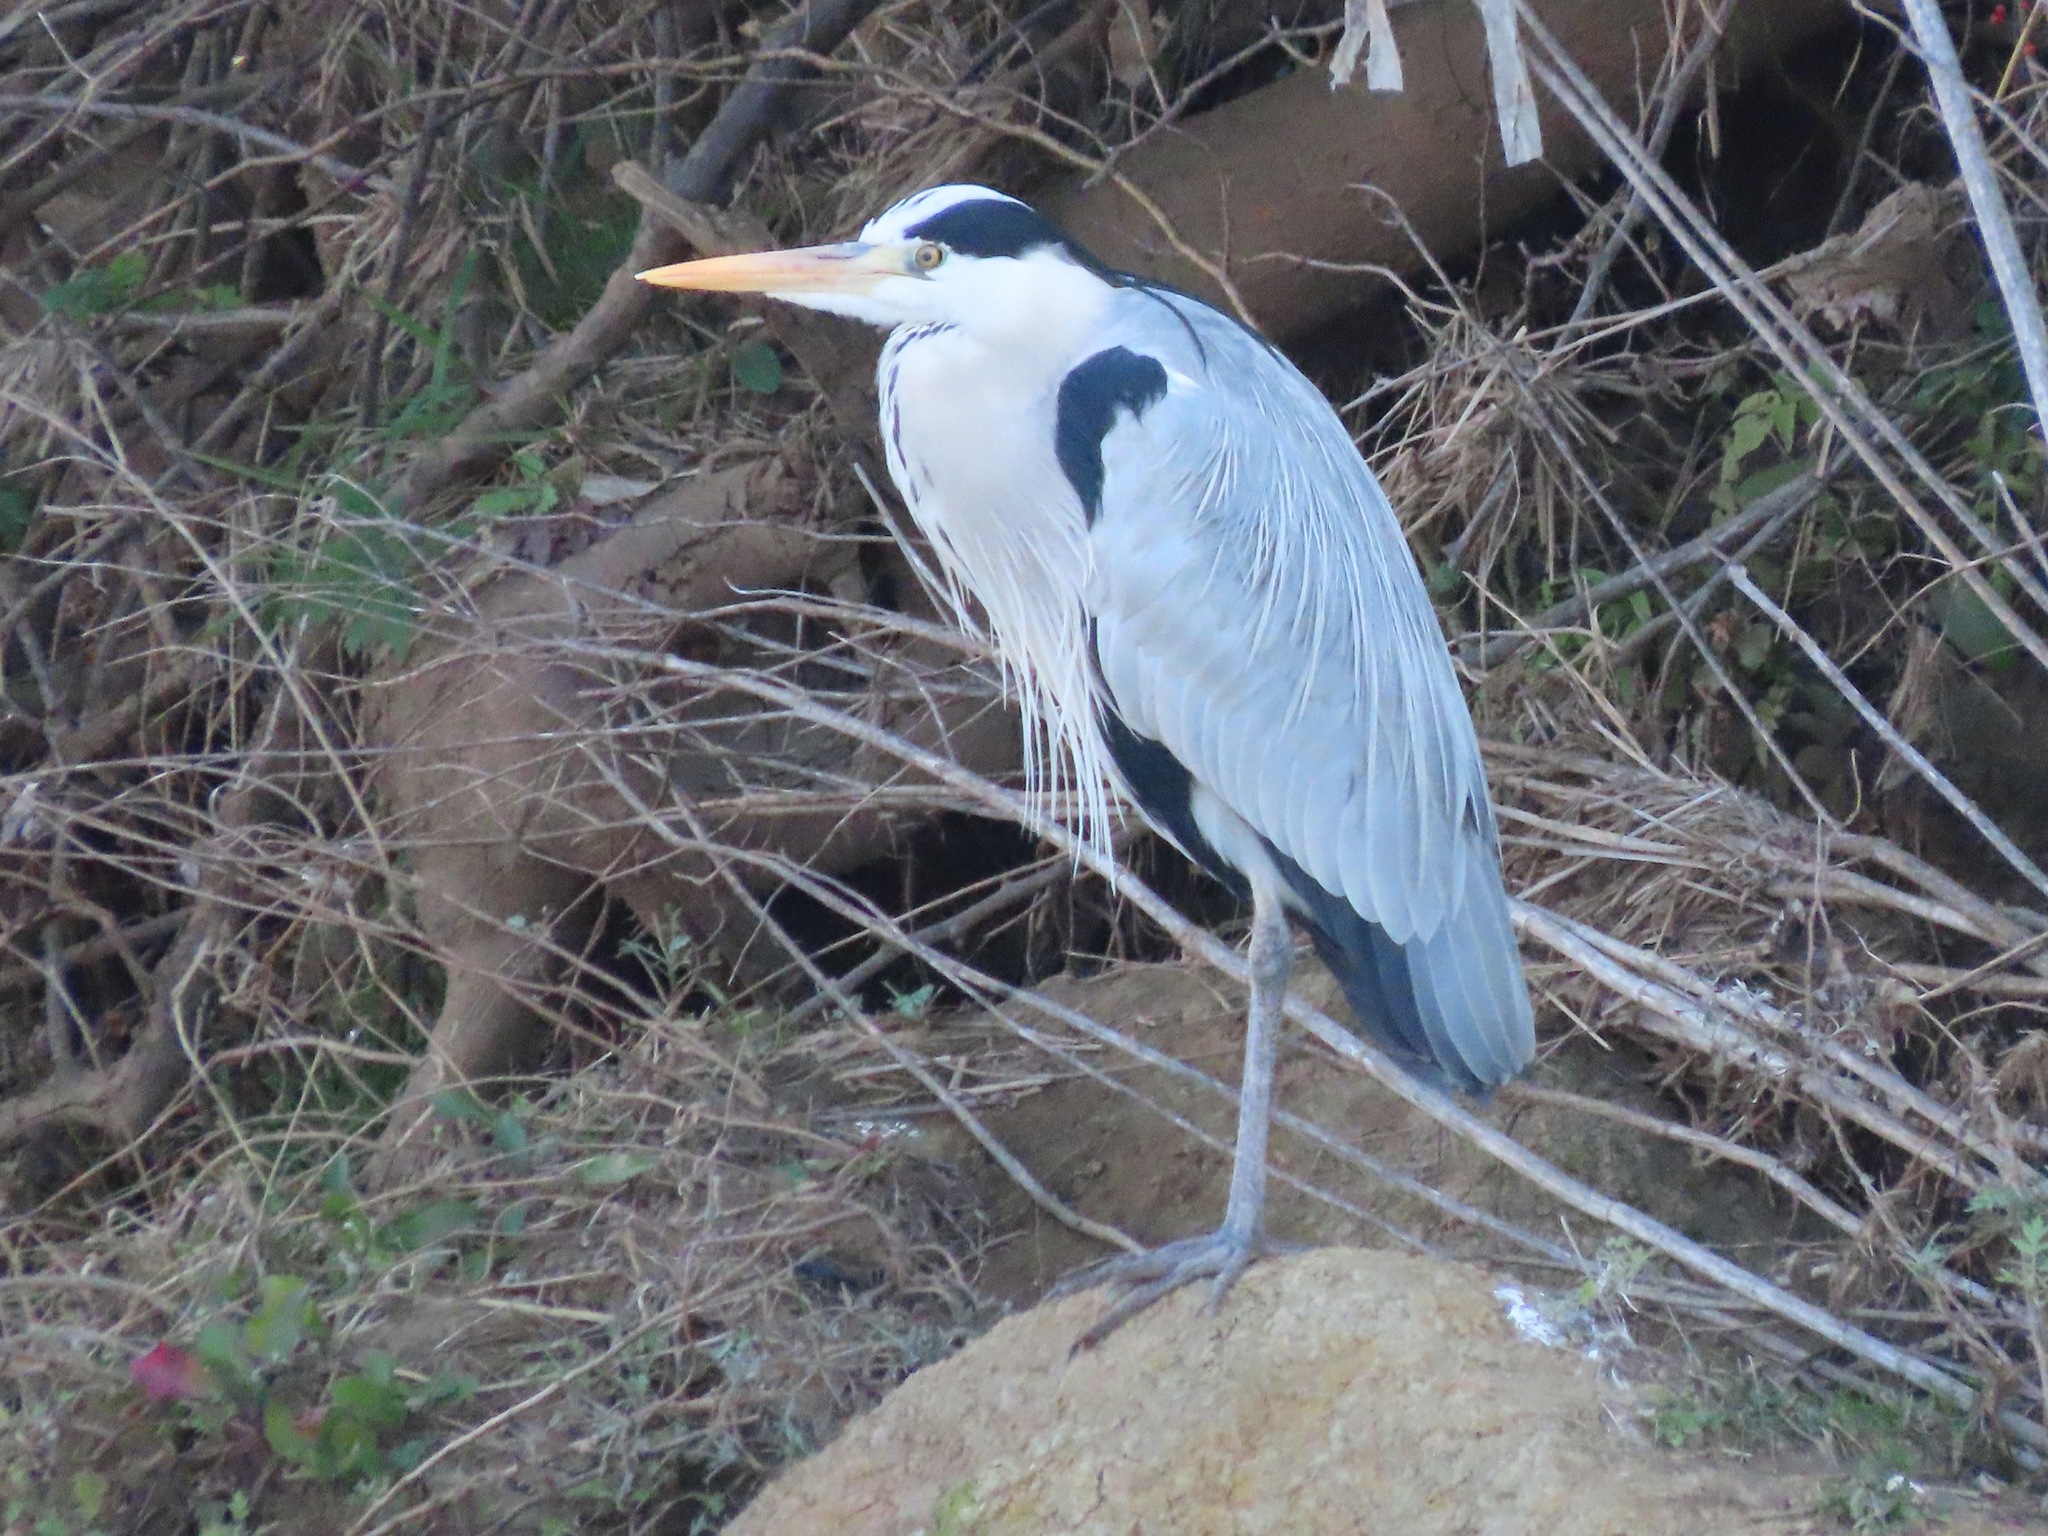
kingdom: Animalia
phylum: Chordata
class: Aves
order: Pelecaniformes
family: Ardeidae
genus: Ardea
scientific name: Ardea cinerea
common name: Grey heron
